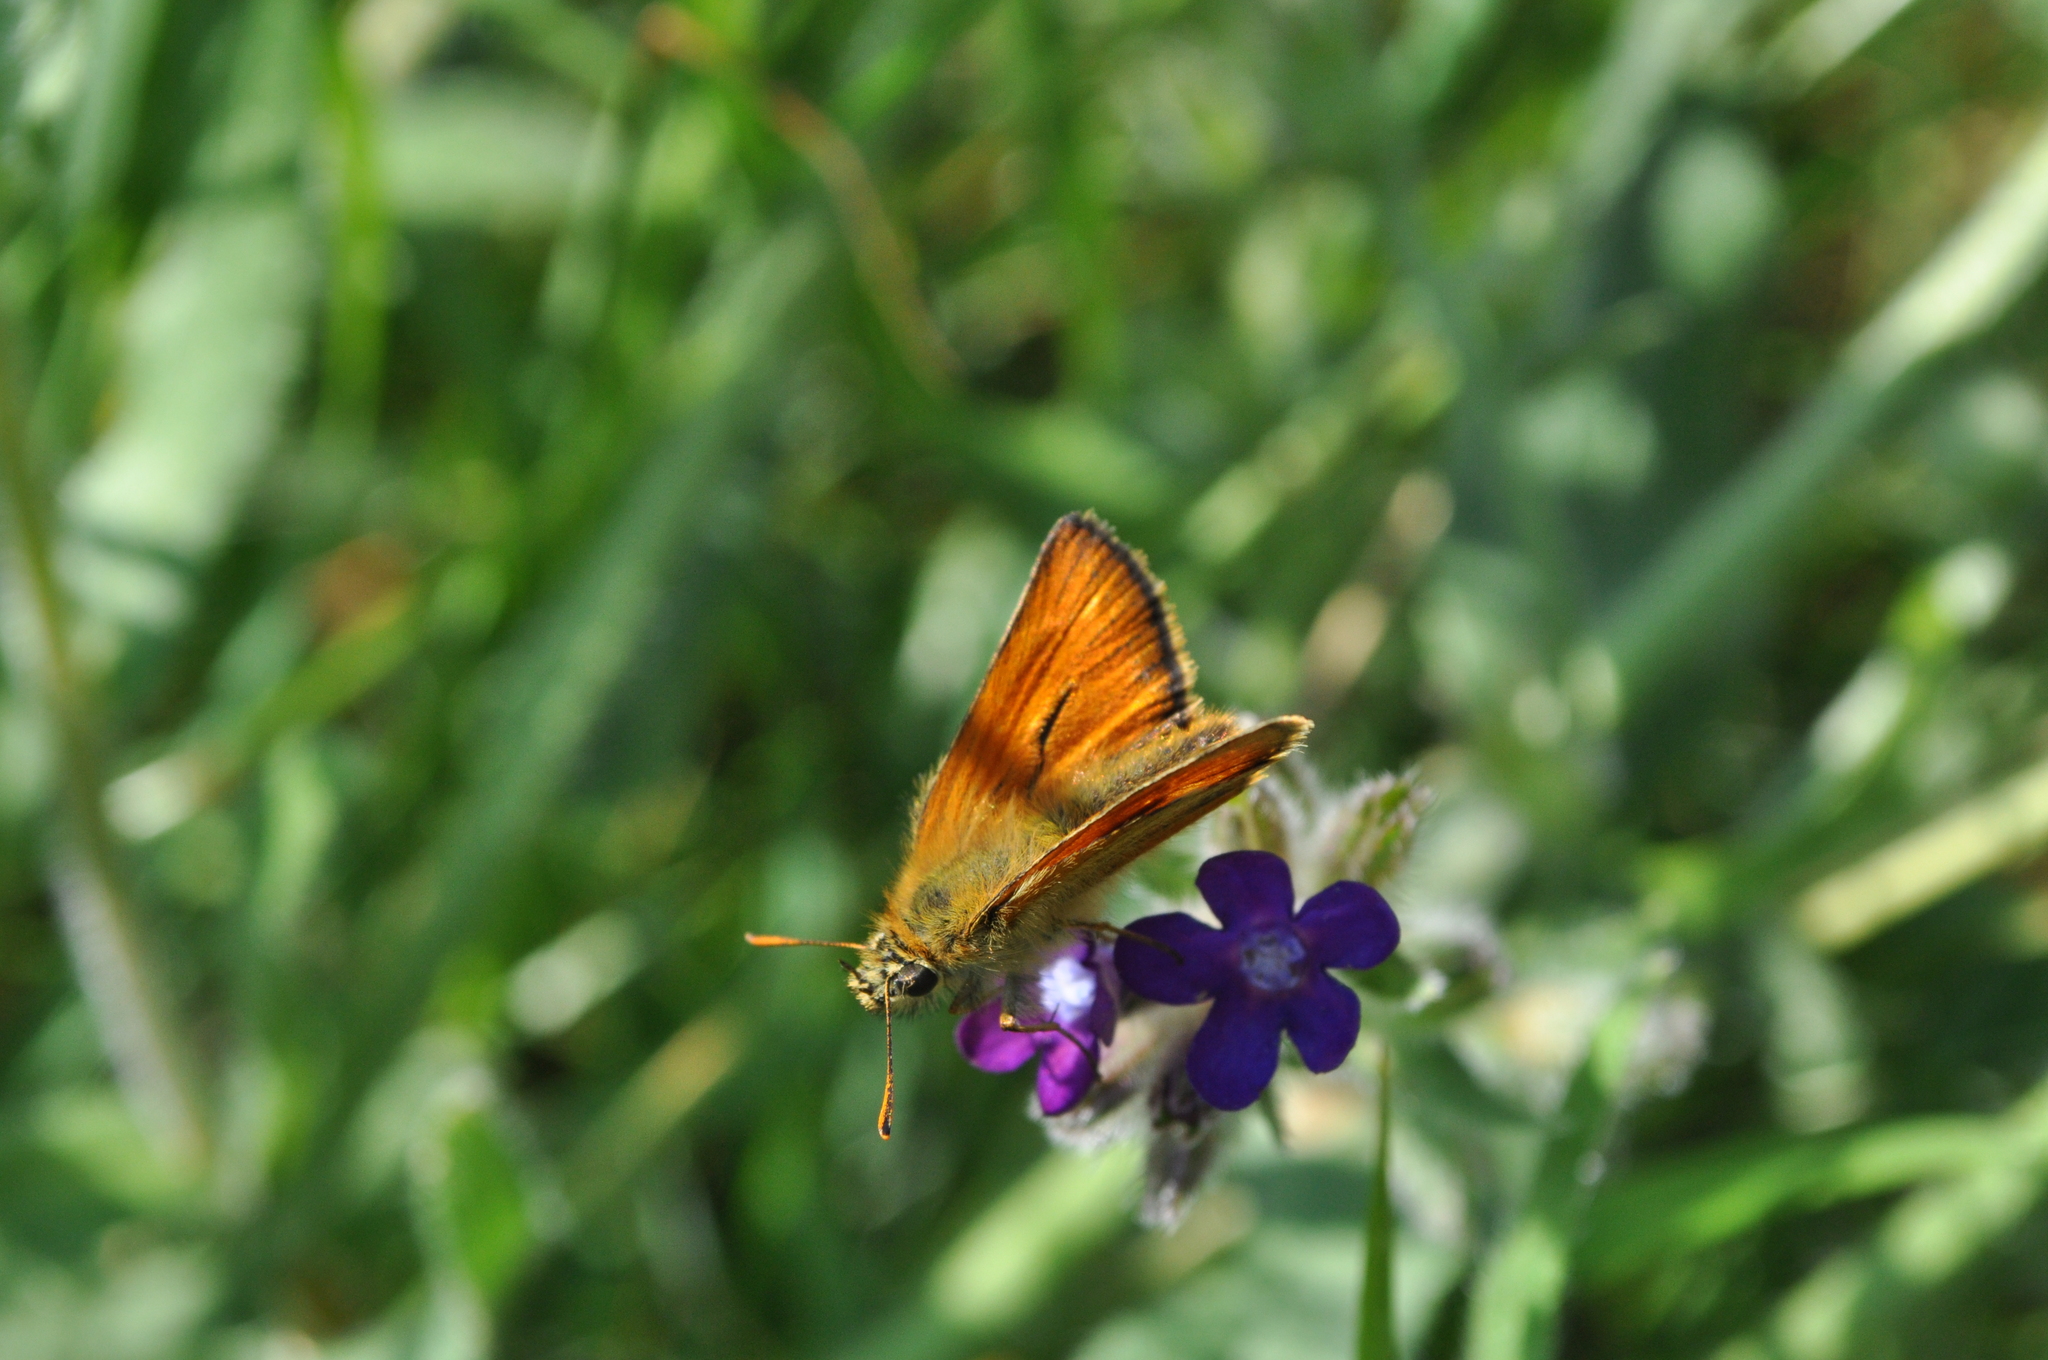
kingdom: Animalia
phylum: Arthropoda
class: Insecta
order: Lepidoptera
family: Hesperiidae
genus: Thymelicus
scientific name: Thymelicus sylvestris
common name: Small skipper
